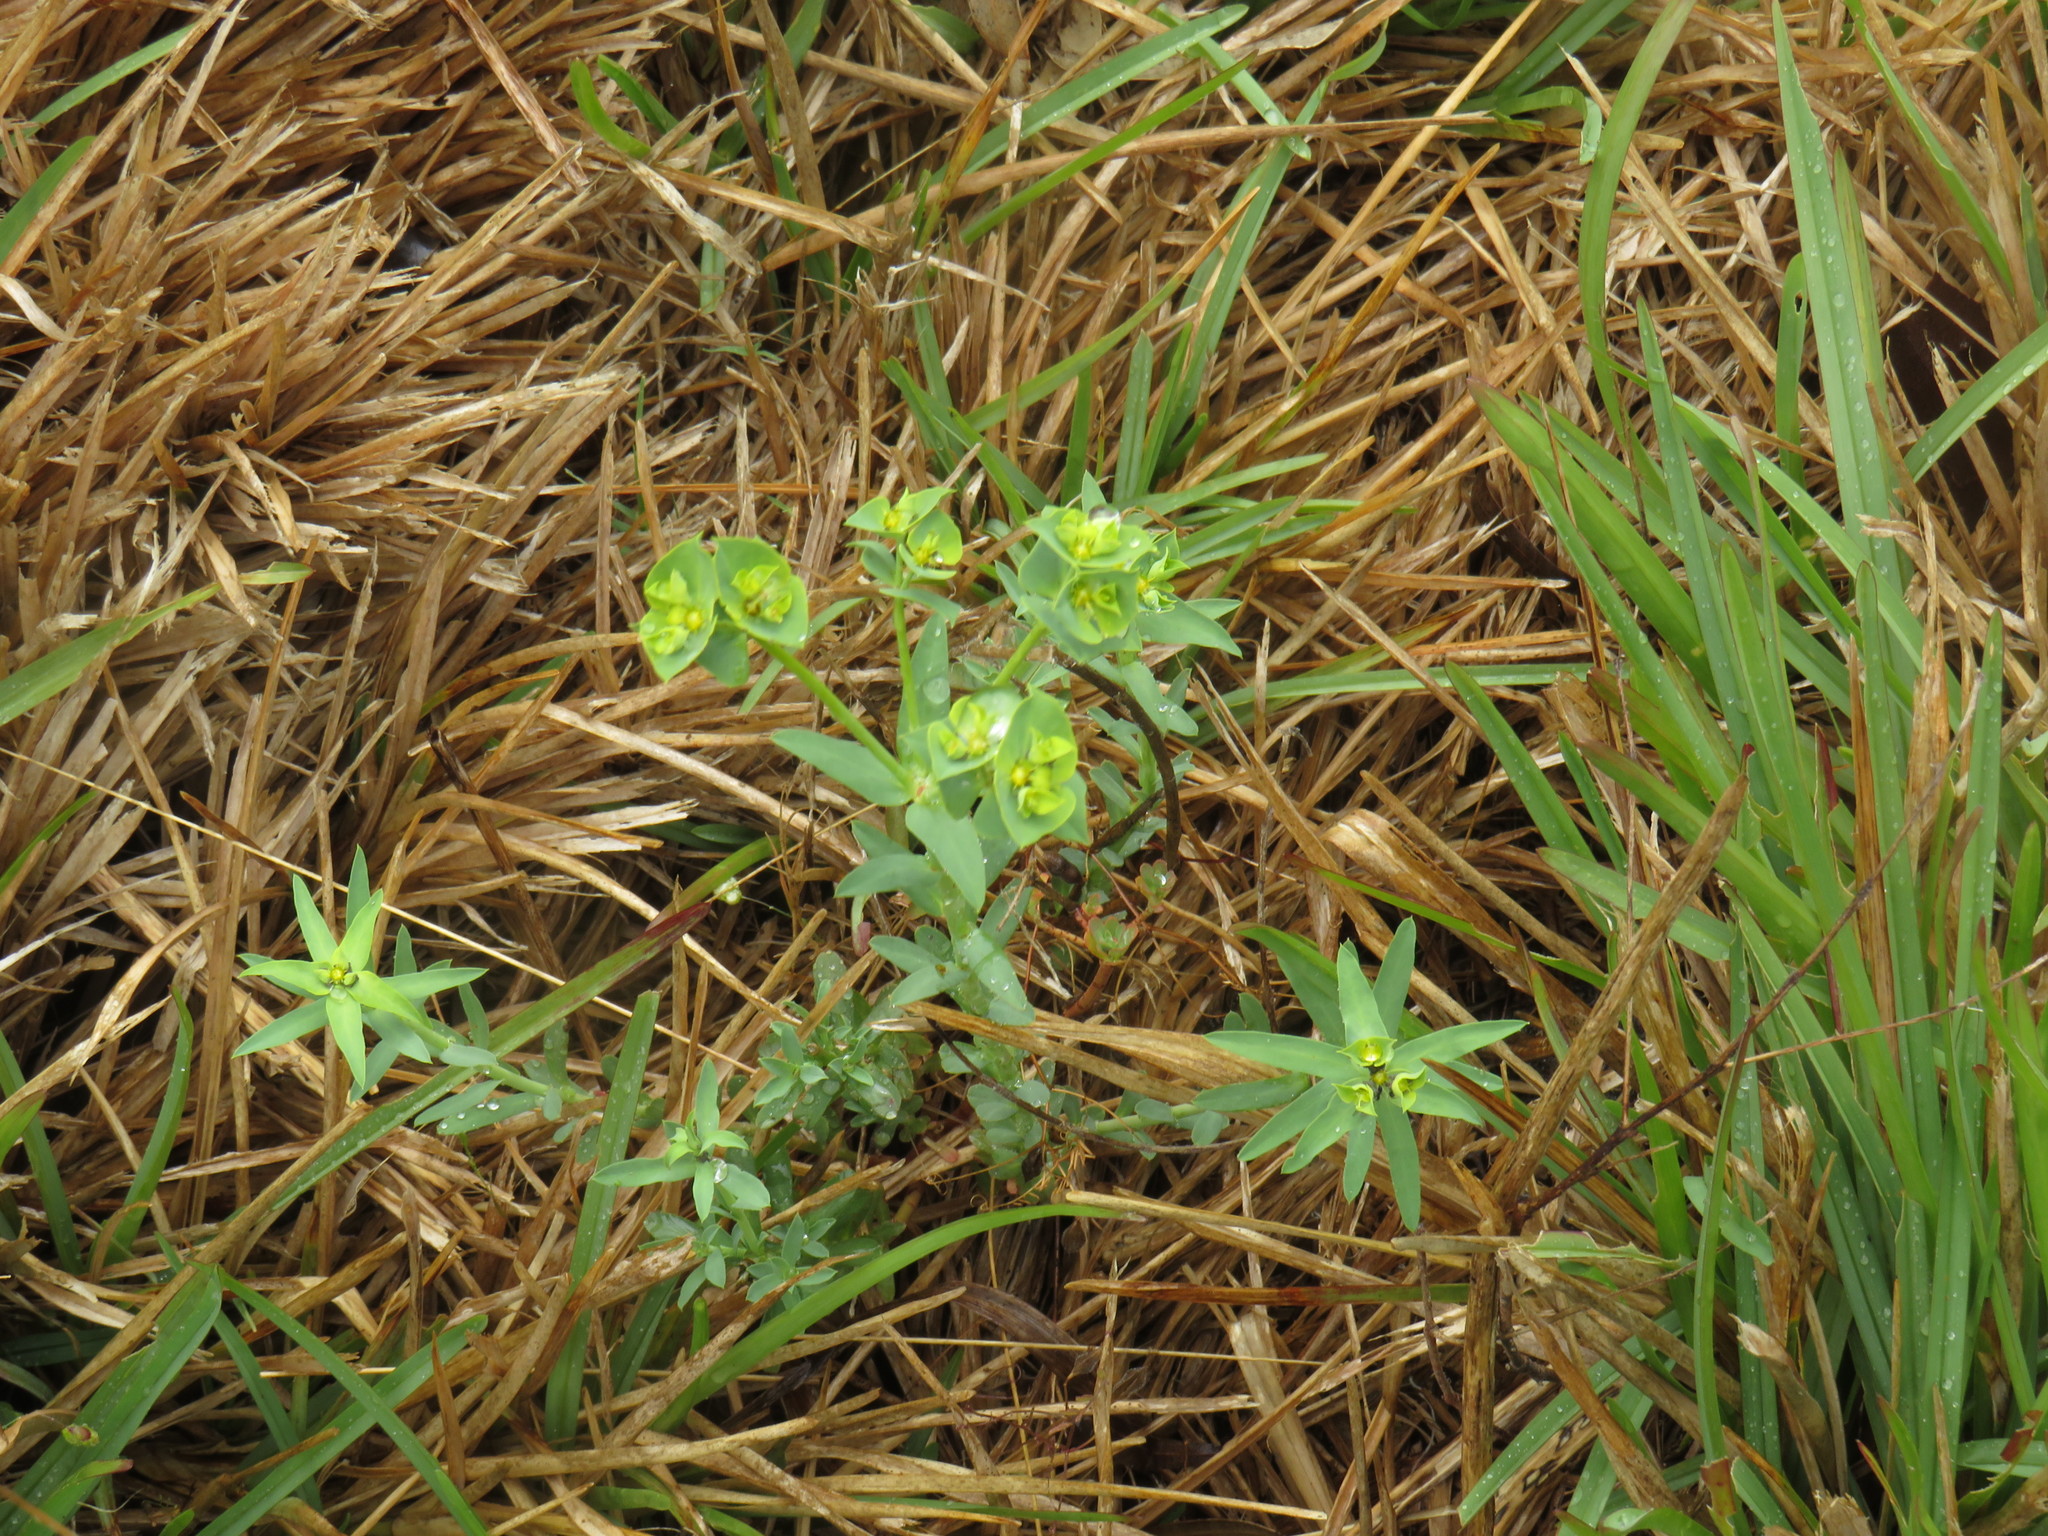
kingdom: Plantae
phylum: Tracheophyta
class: Magnoliopsida
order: Malpighiales
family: Euphorbiaceae
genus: Euphorbia
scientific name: Euphorbia terracina
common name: Geraldton carnation weed
